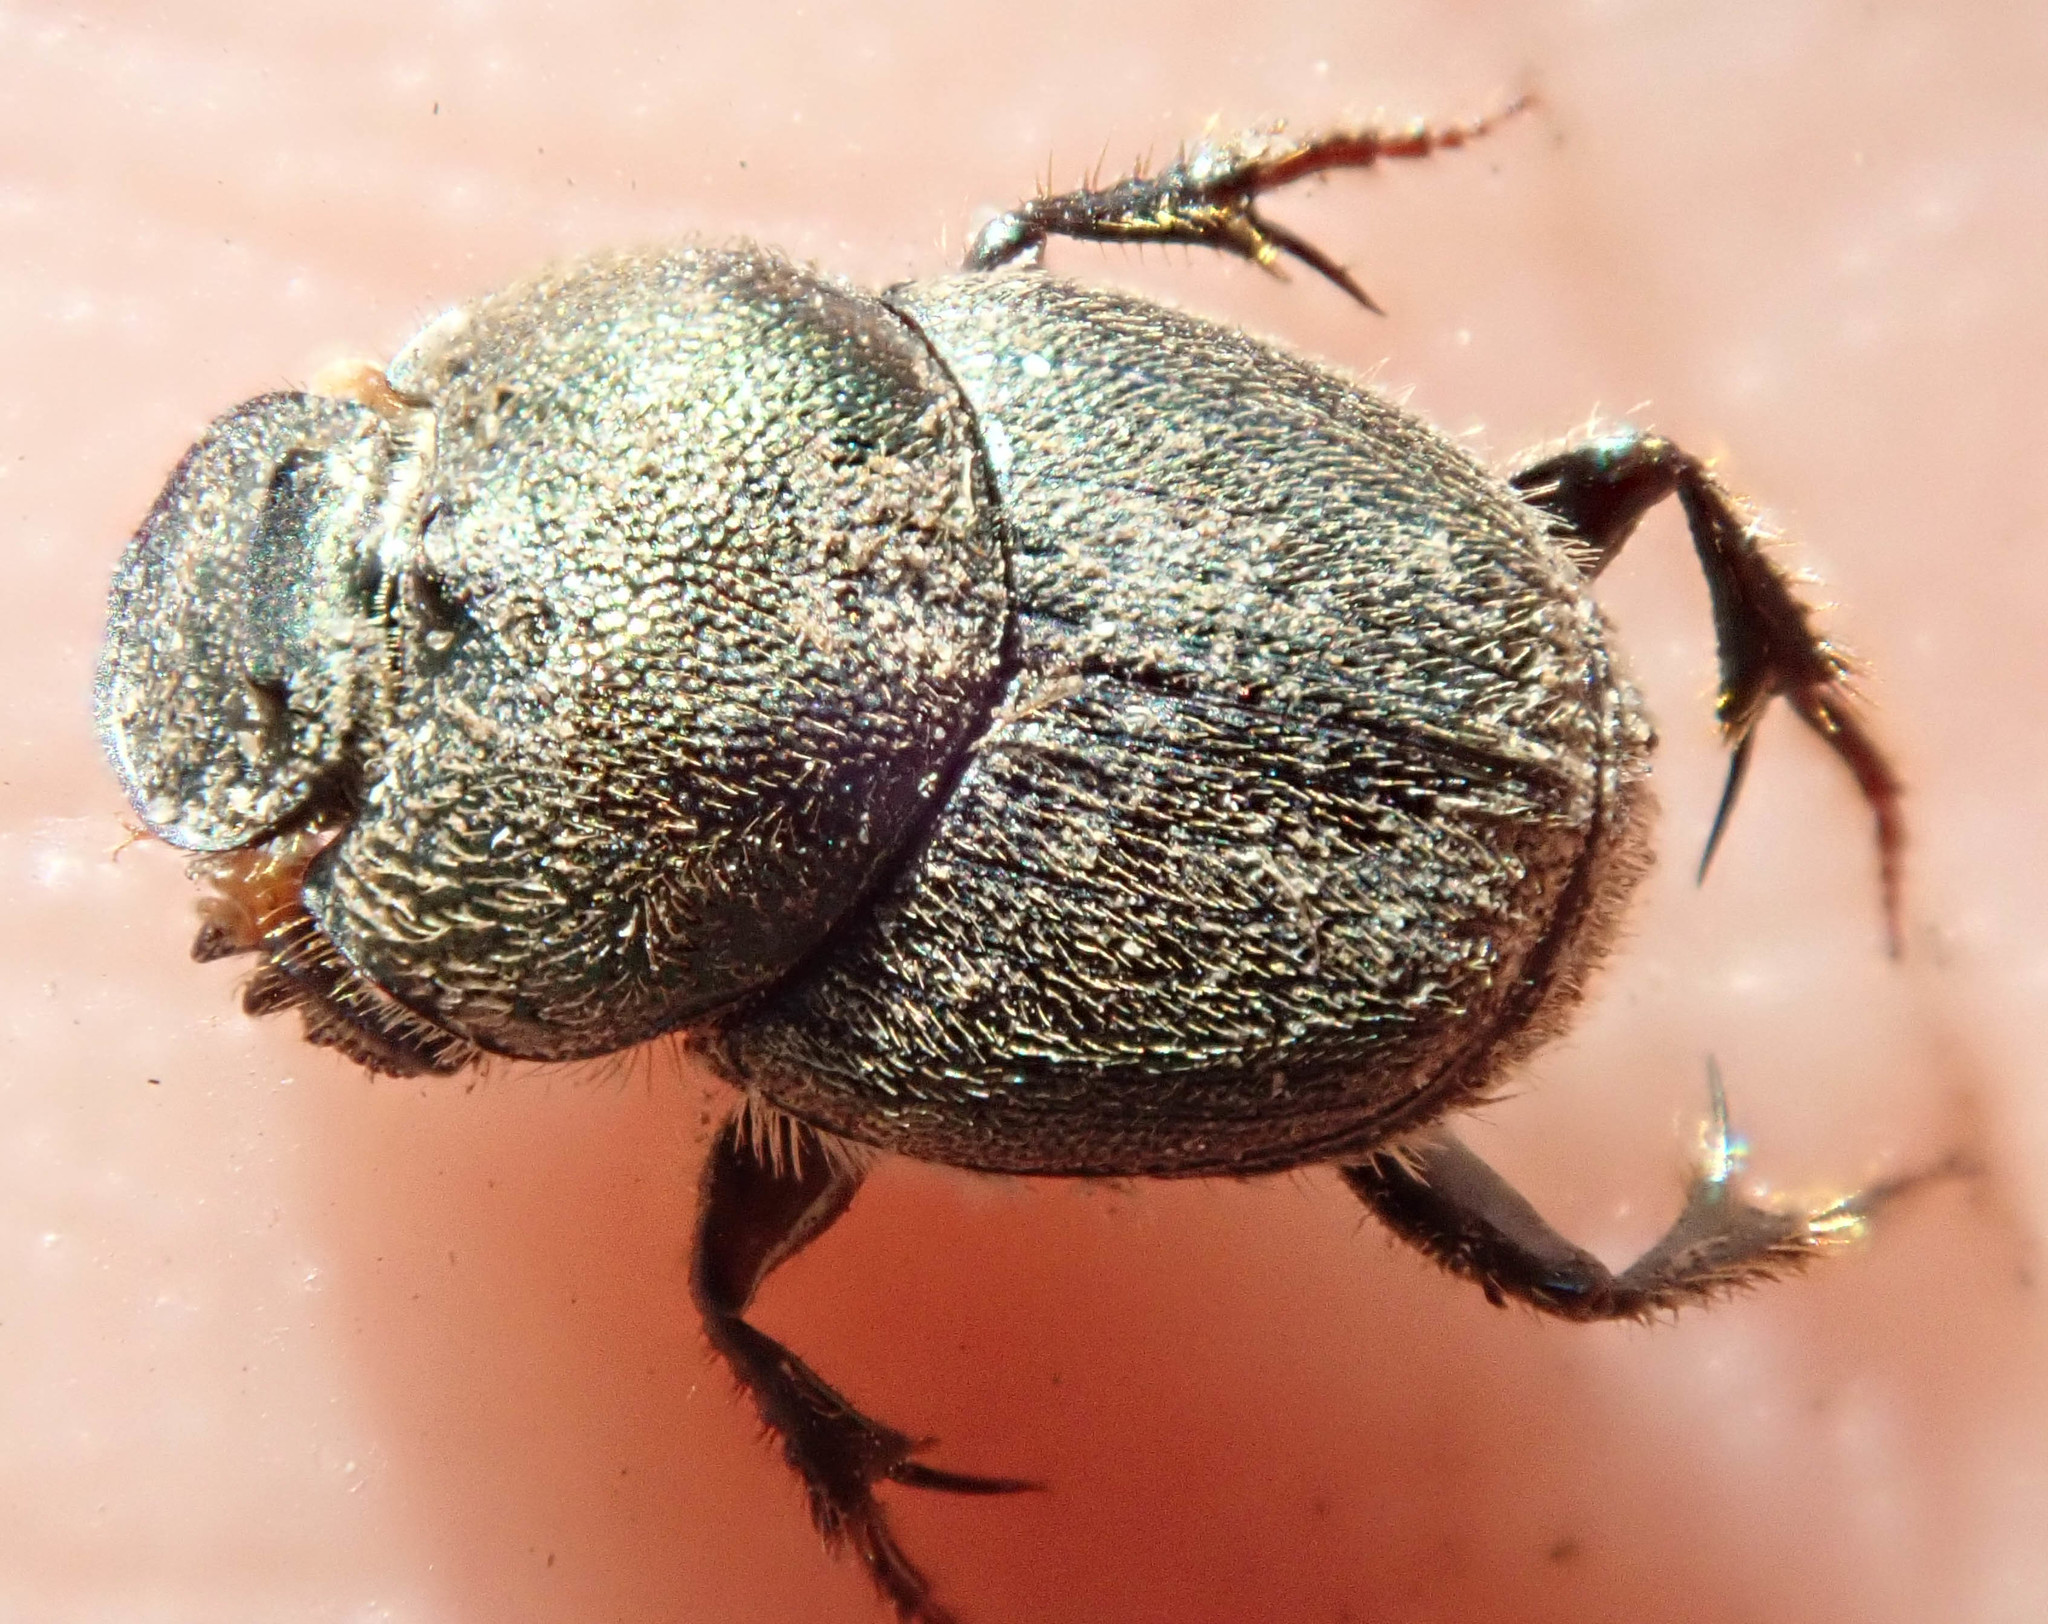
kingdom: Animalia
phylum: Arthropoda
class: Insecta
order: Coleoptera
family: Scarabaeidae
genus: Onthophagus
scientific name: Onthophagus aeruginosus
